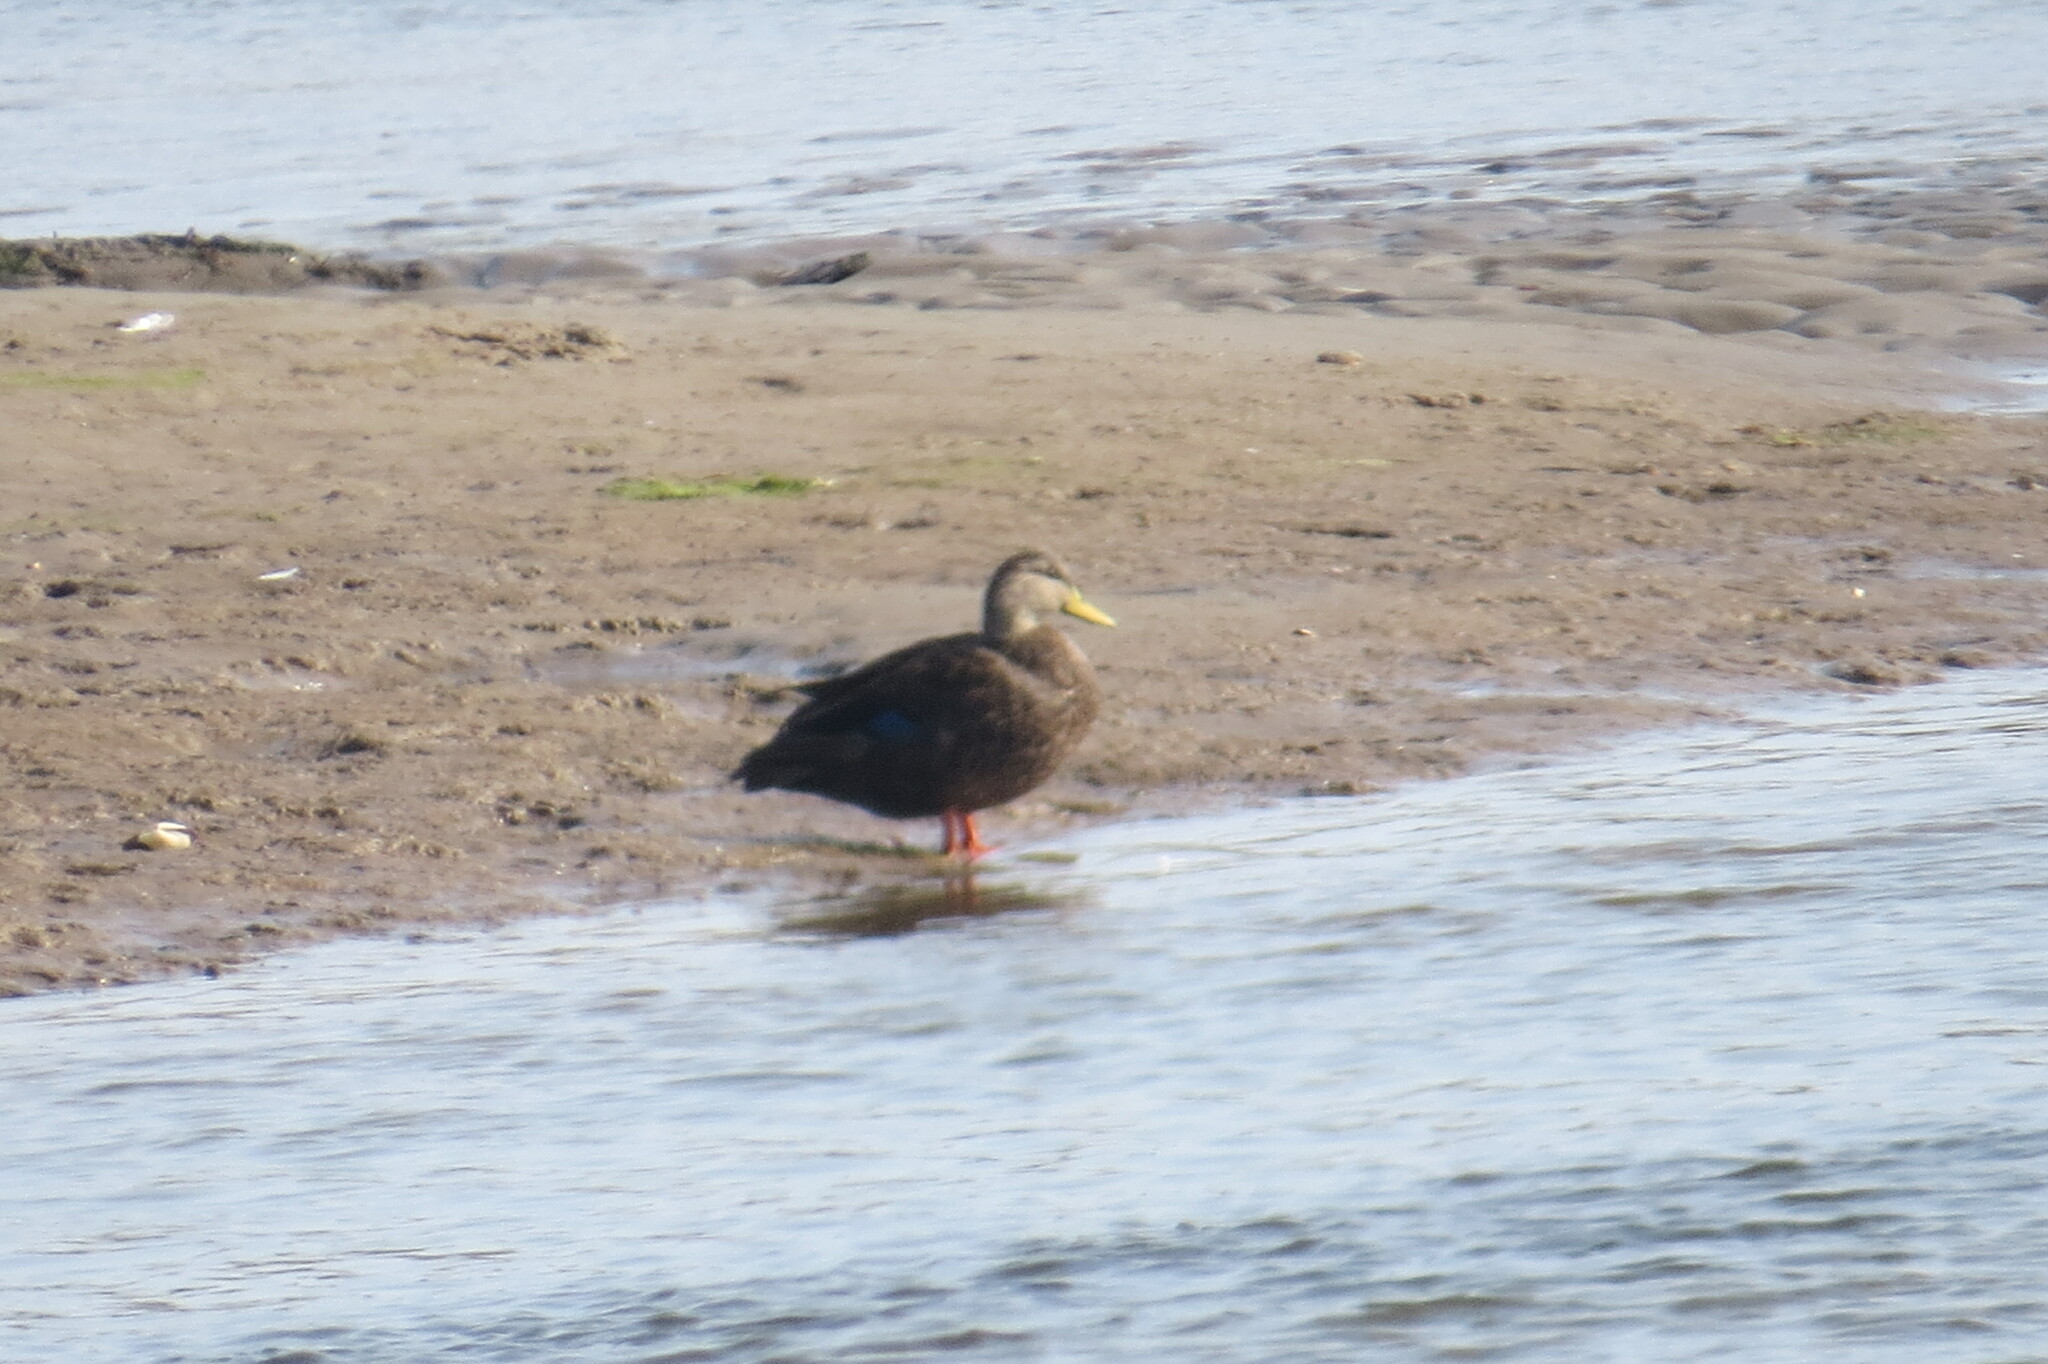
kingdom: Animalia
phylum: Chordata
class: Aves
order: Anseriformes
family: Anatidae
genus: Anas
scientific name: Anas rubripes
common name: American black duck
